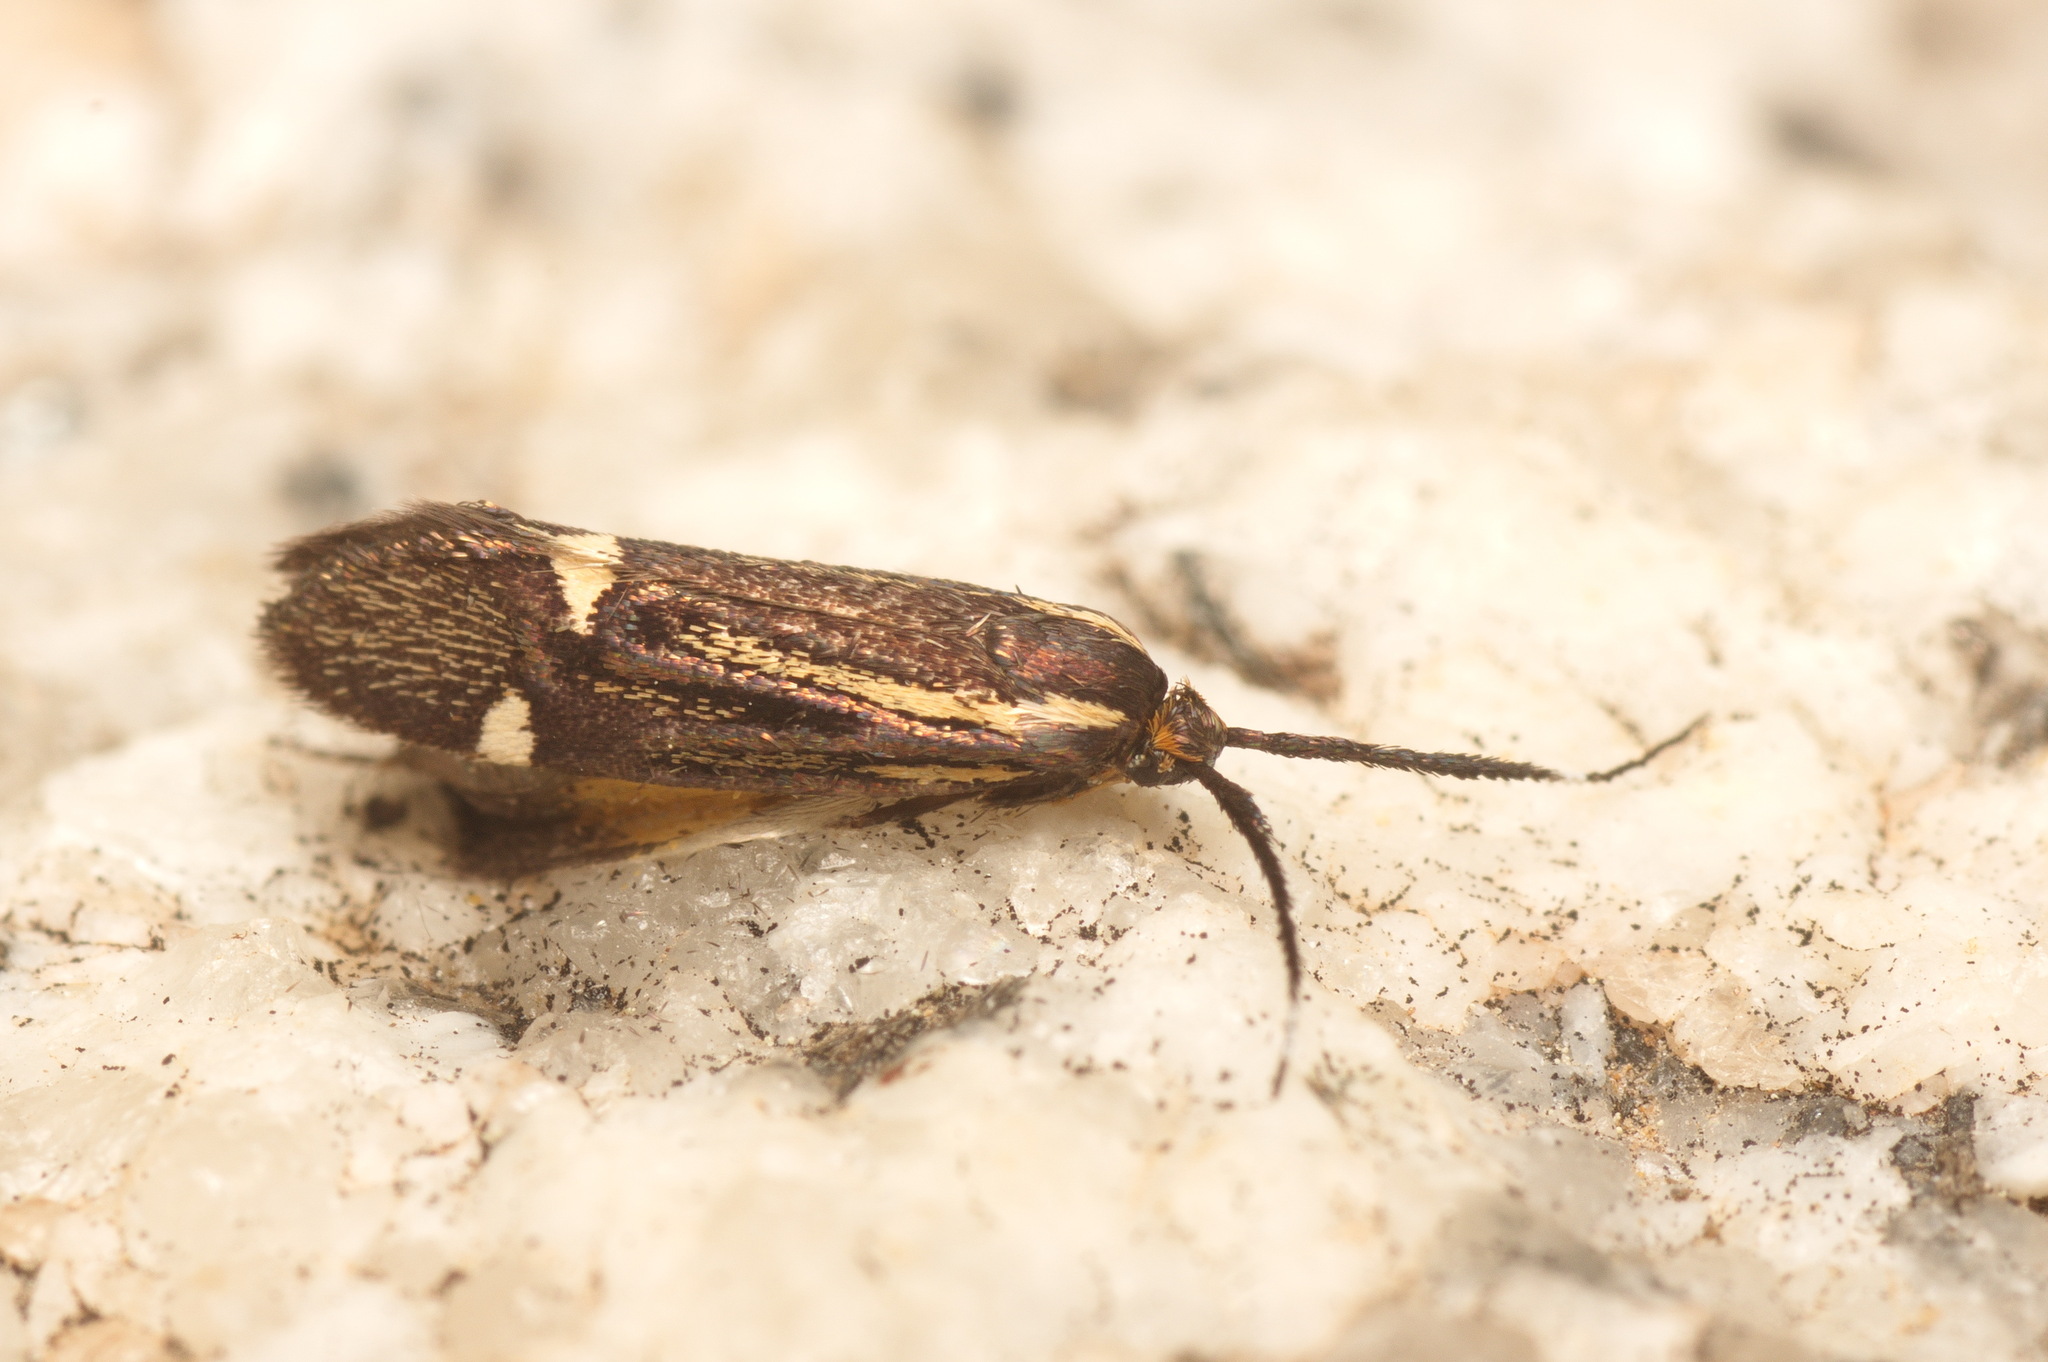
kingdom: Animalia
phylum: Arthropoda
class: Insecta
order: Lepidoptera
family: Oecophoridae
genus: Dafa
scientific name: Dafa Esperia sulphurella
